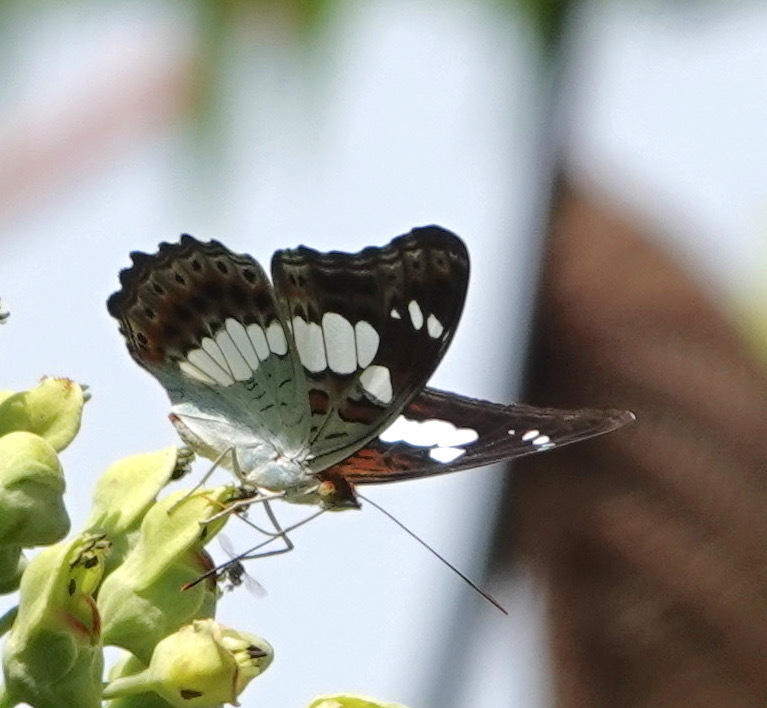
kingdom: Animalia
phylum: Arthropoda
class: Insecta
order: Lepidoptera
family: Nymphalidae
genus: Limenitis
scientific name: Limenitis Moduza procris
